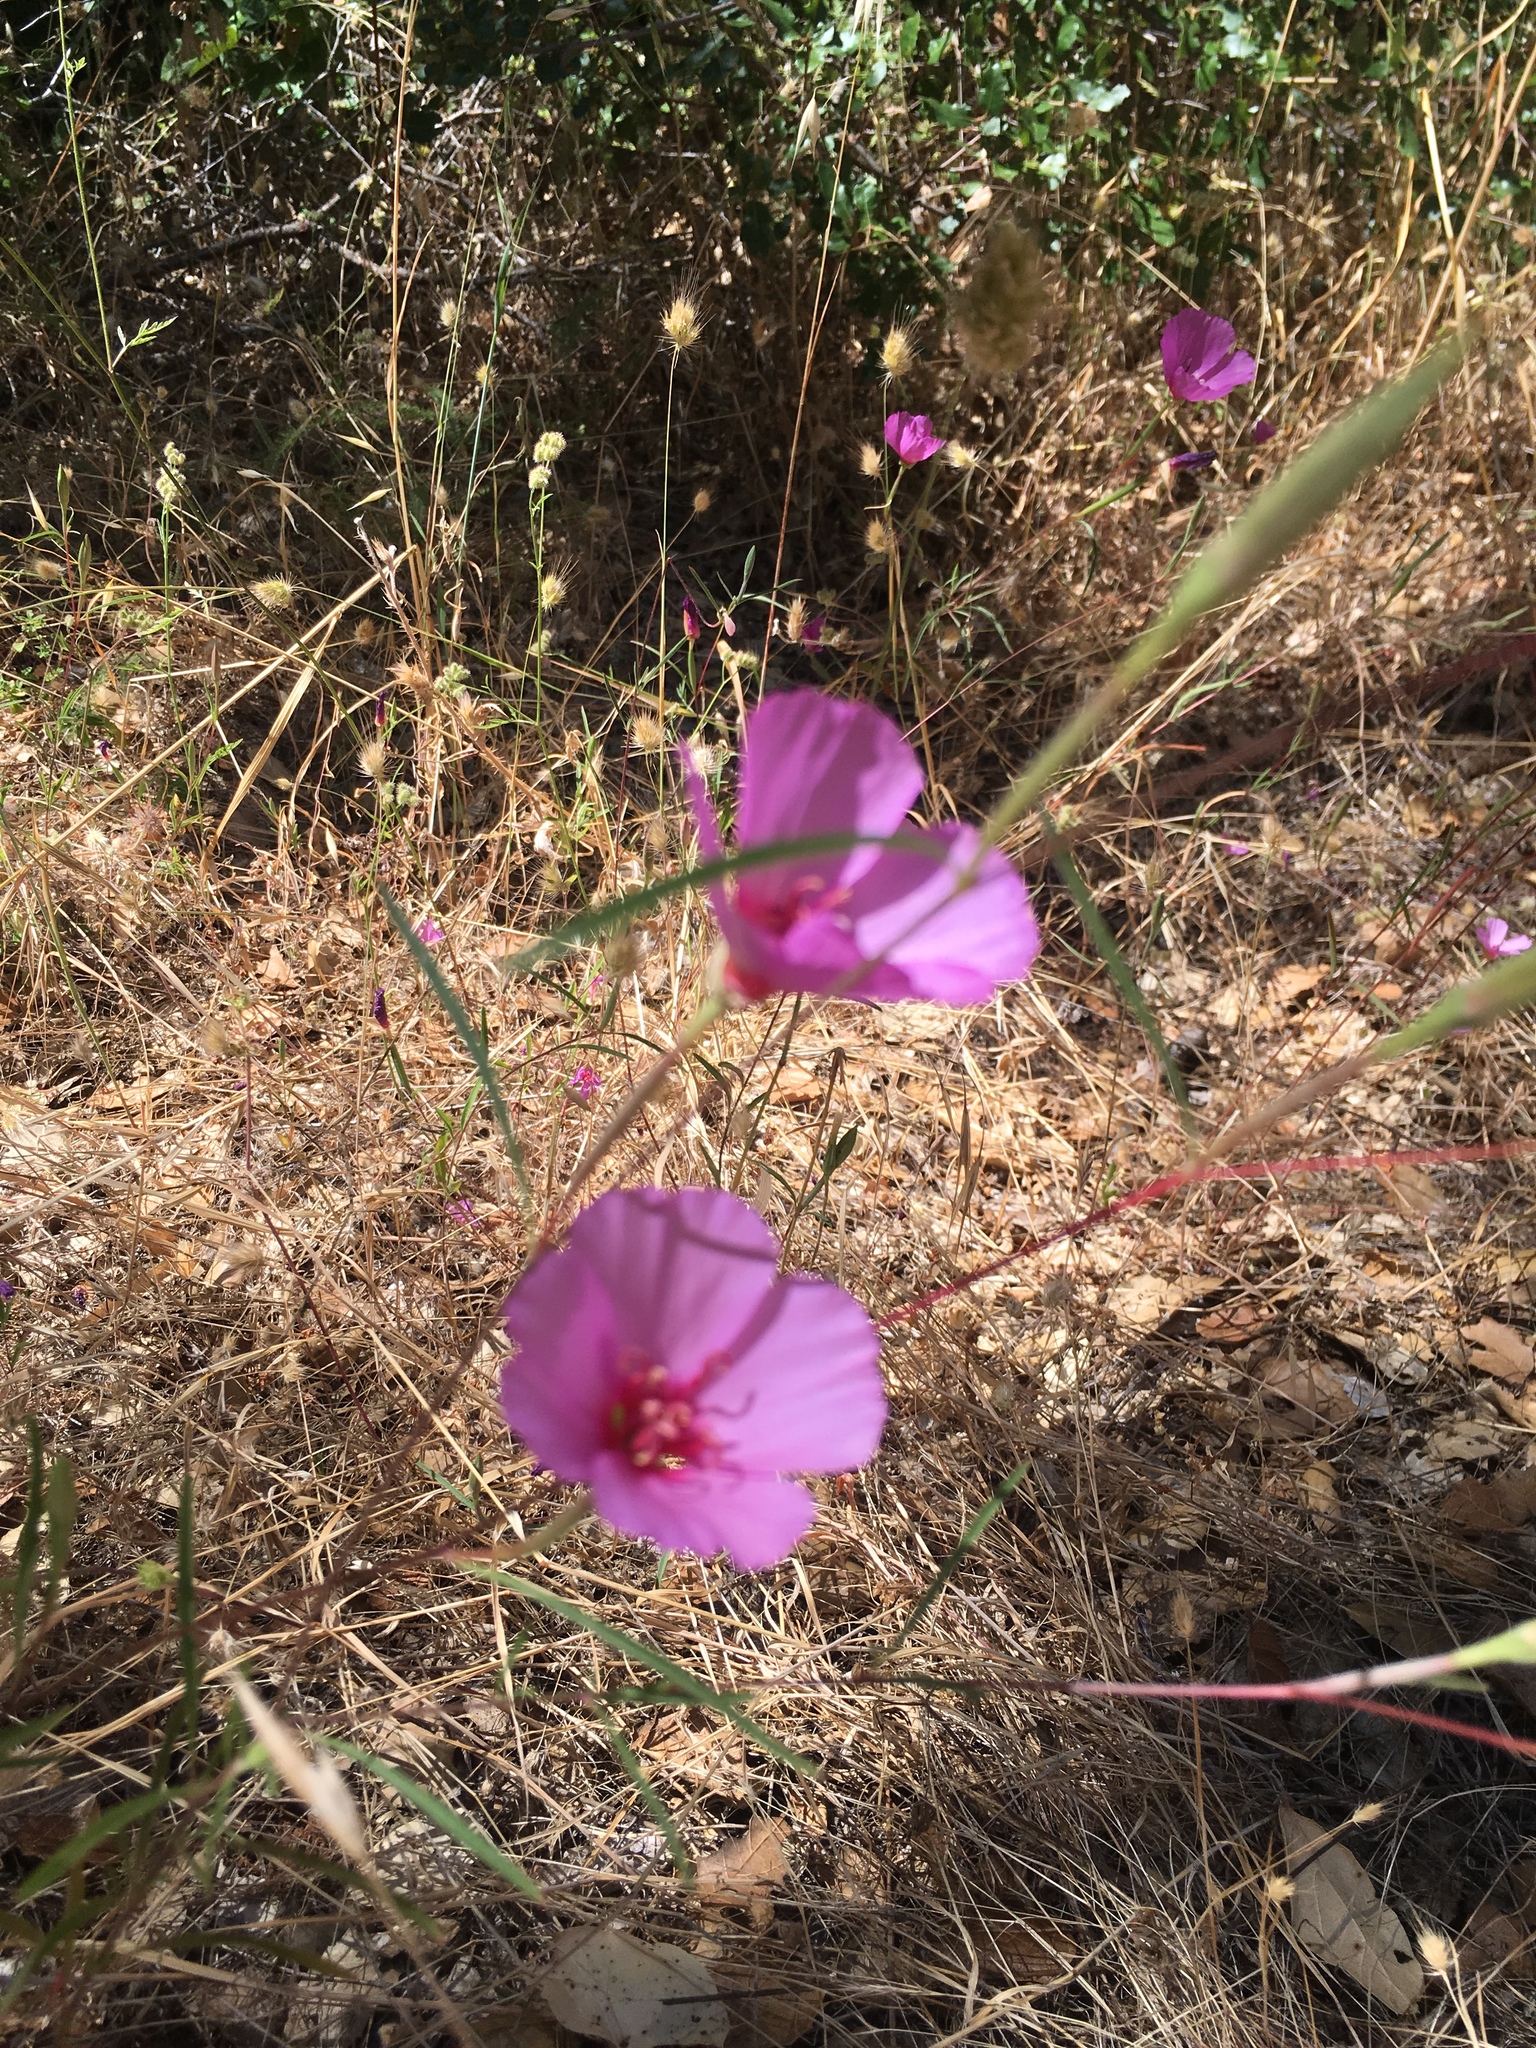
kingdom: Plantae
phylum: Tracheophyta
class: Magnoliopsida
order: Myrtales
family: Onagraceae
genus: Clarkia
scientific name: Clarkia rubicunda
